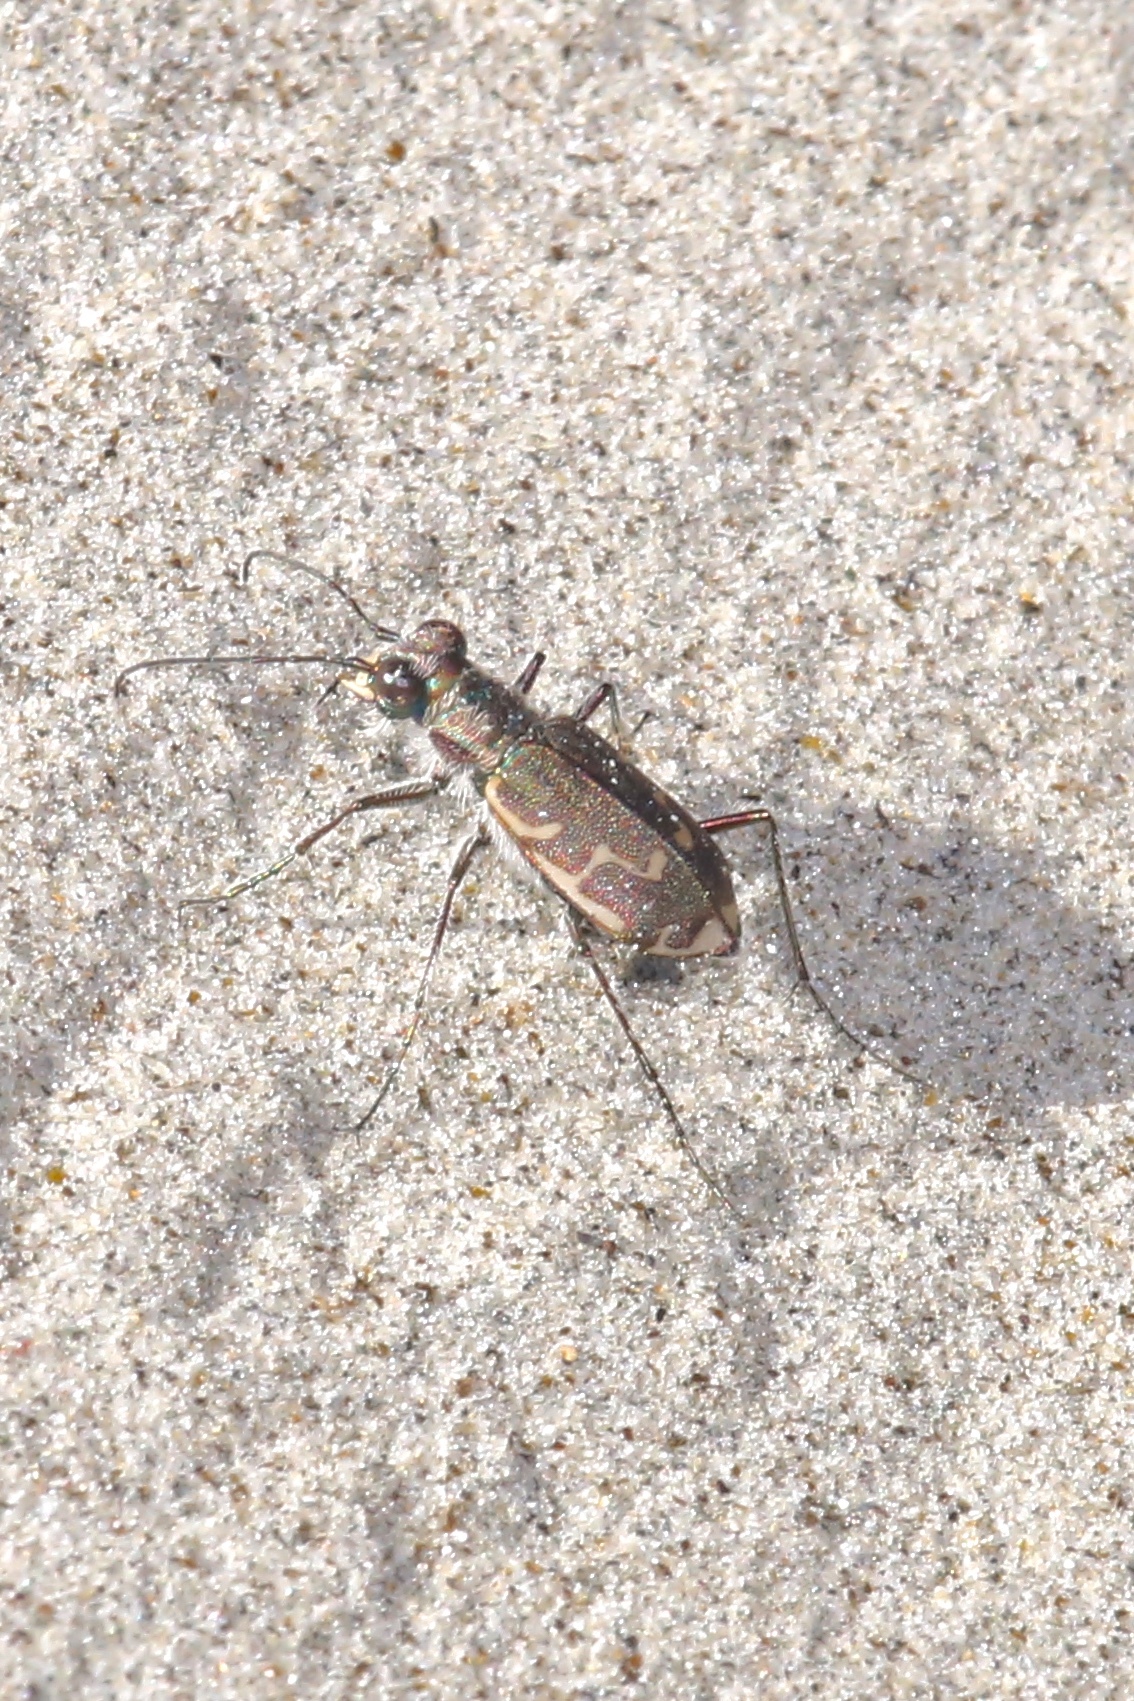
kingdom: Animalia
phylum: Arthropoda
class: Insecta
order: Coleoptera
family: Carabidae
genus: Cicindela
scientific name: Cicindela repanda
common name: Bronzed tiger beetle
